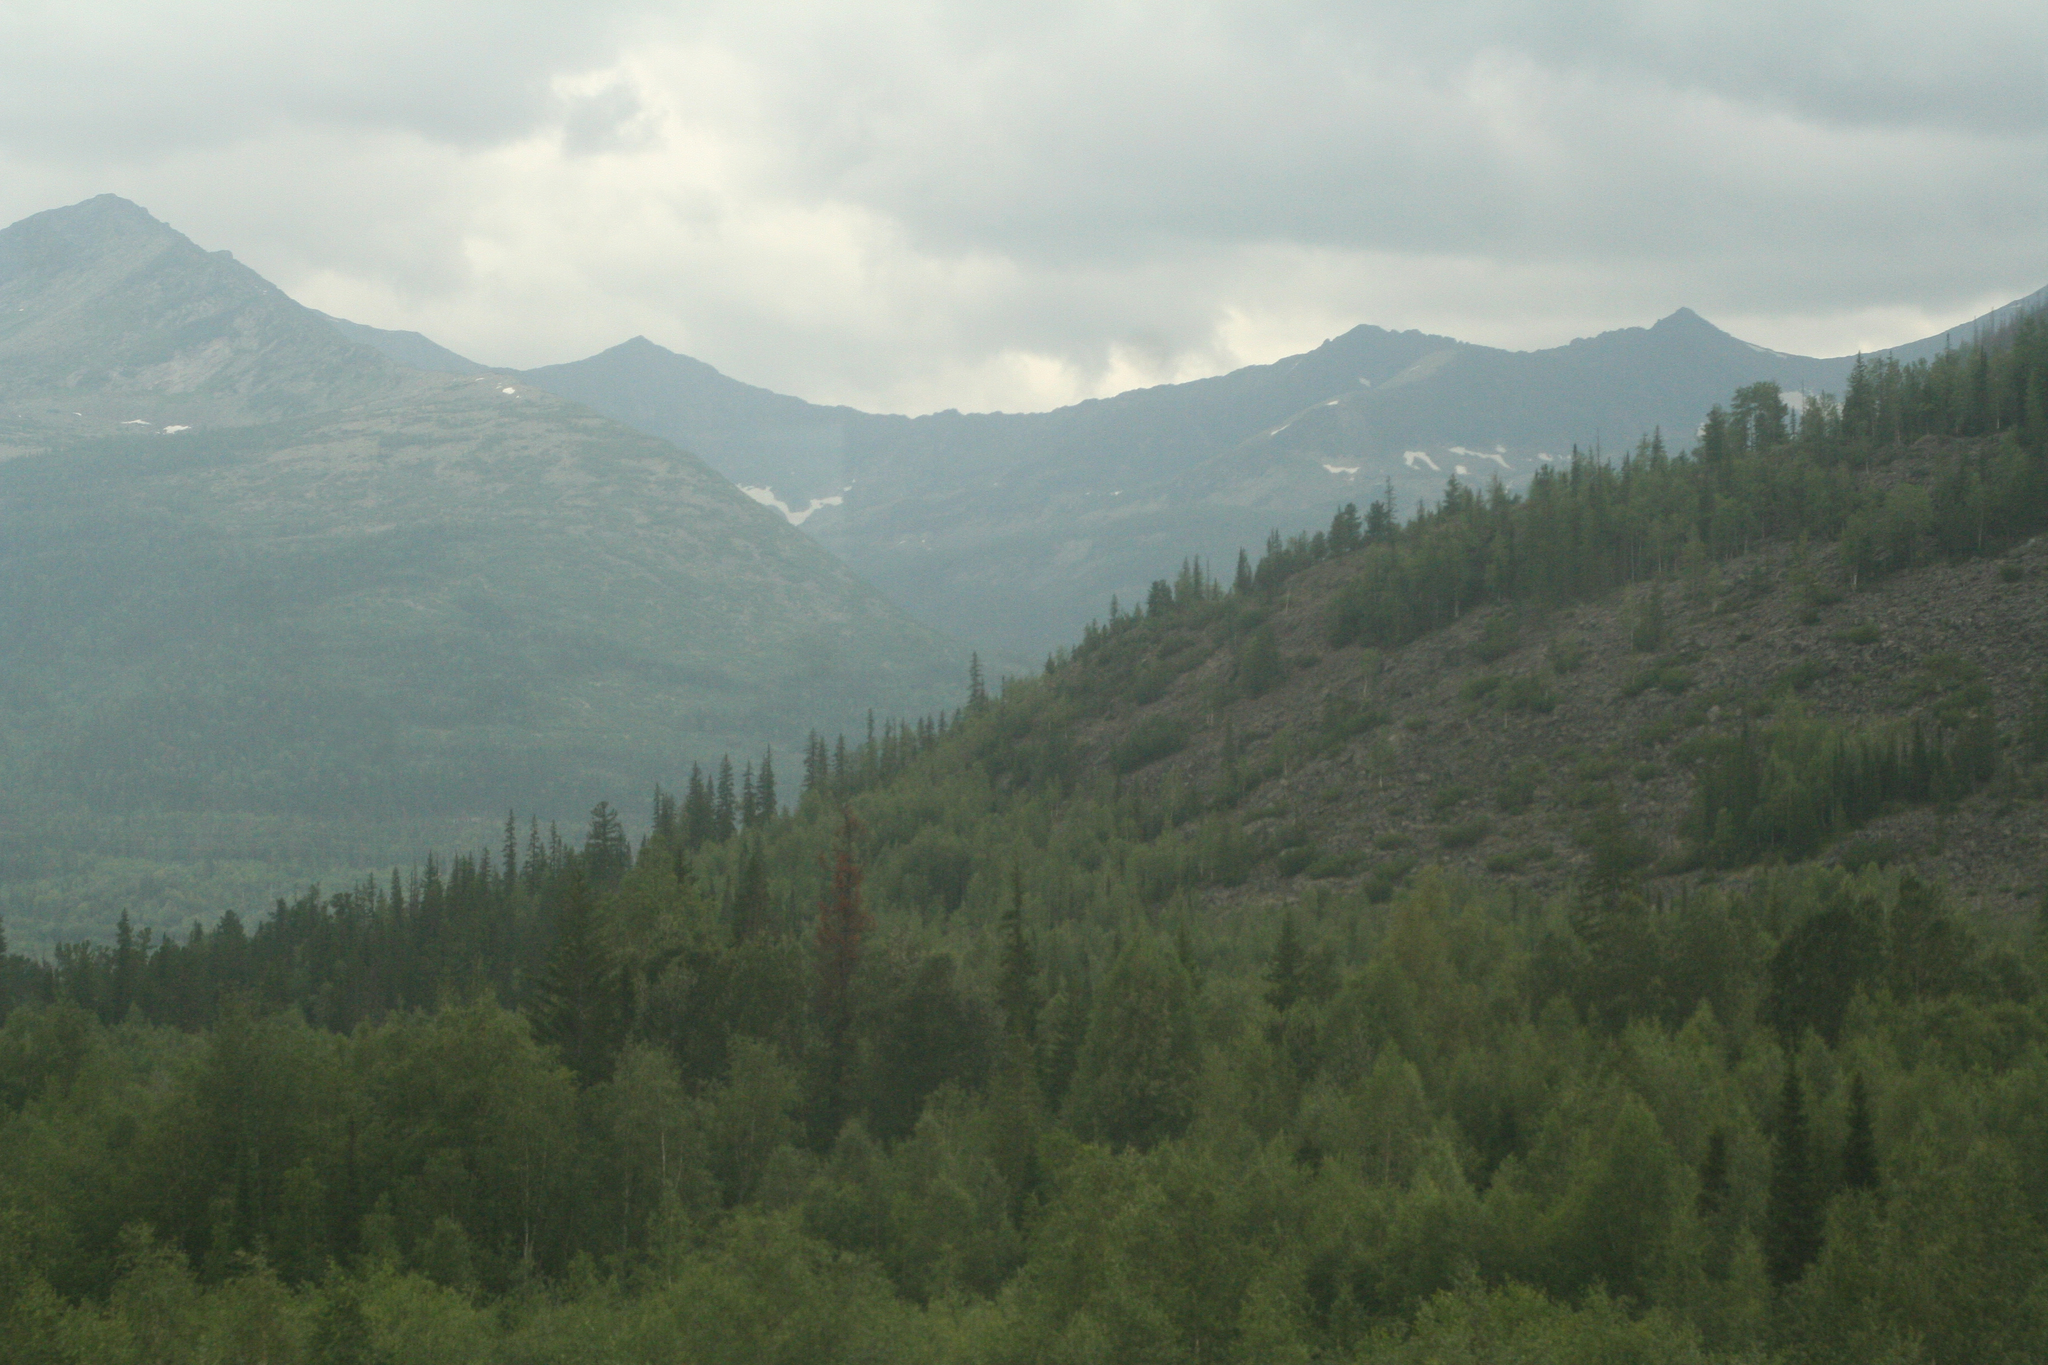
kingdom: Plantae
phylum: Tracheophyta
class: Pinopsida
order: Pinales
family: Pinaceae
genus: Picea
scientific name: Picea obovata
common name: Siberian spruce
